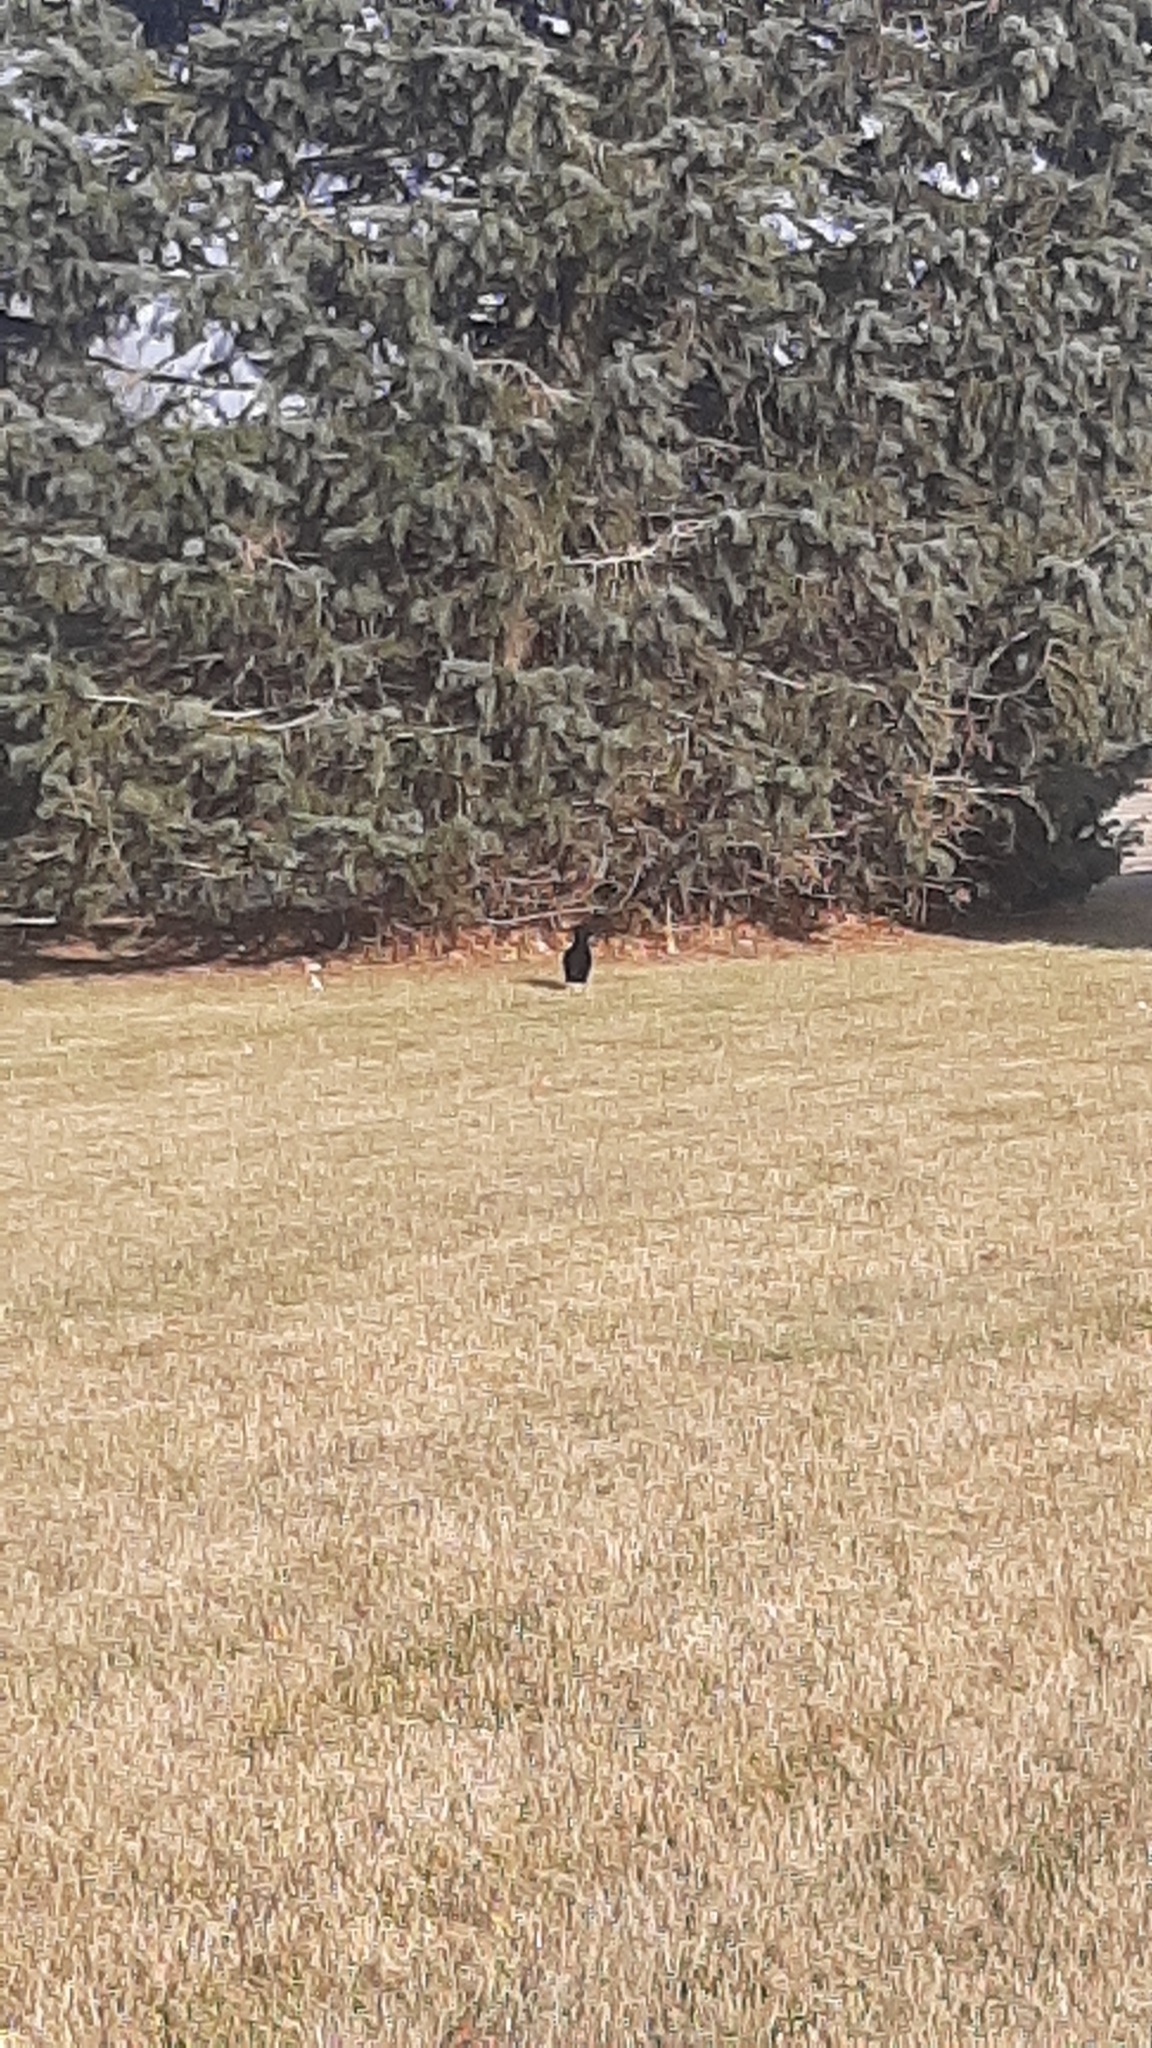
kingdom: Animalia
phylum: Chordata
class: Aves
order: Passeriformes
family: Corvidae
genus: Corvus
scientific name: Corvus brachyrhynchos
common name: American crow
